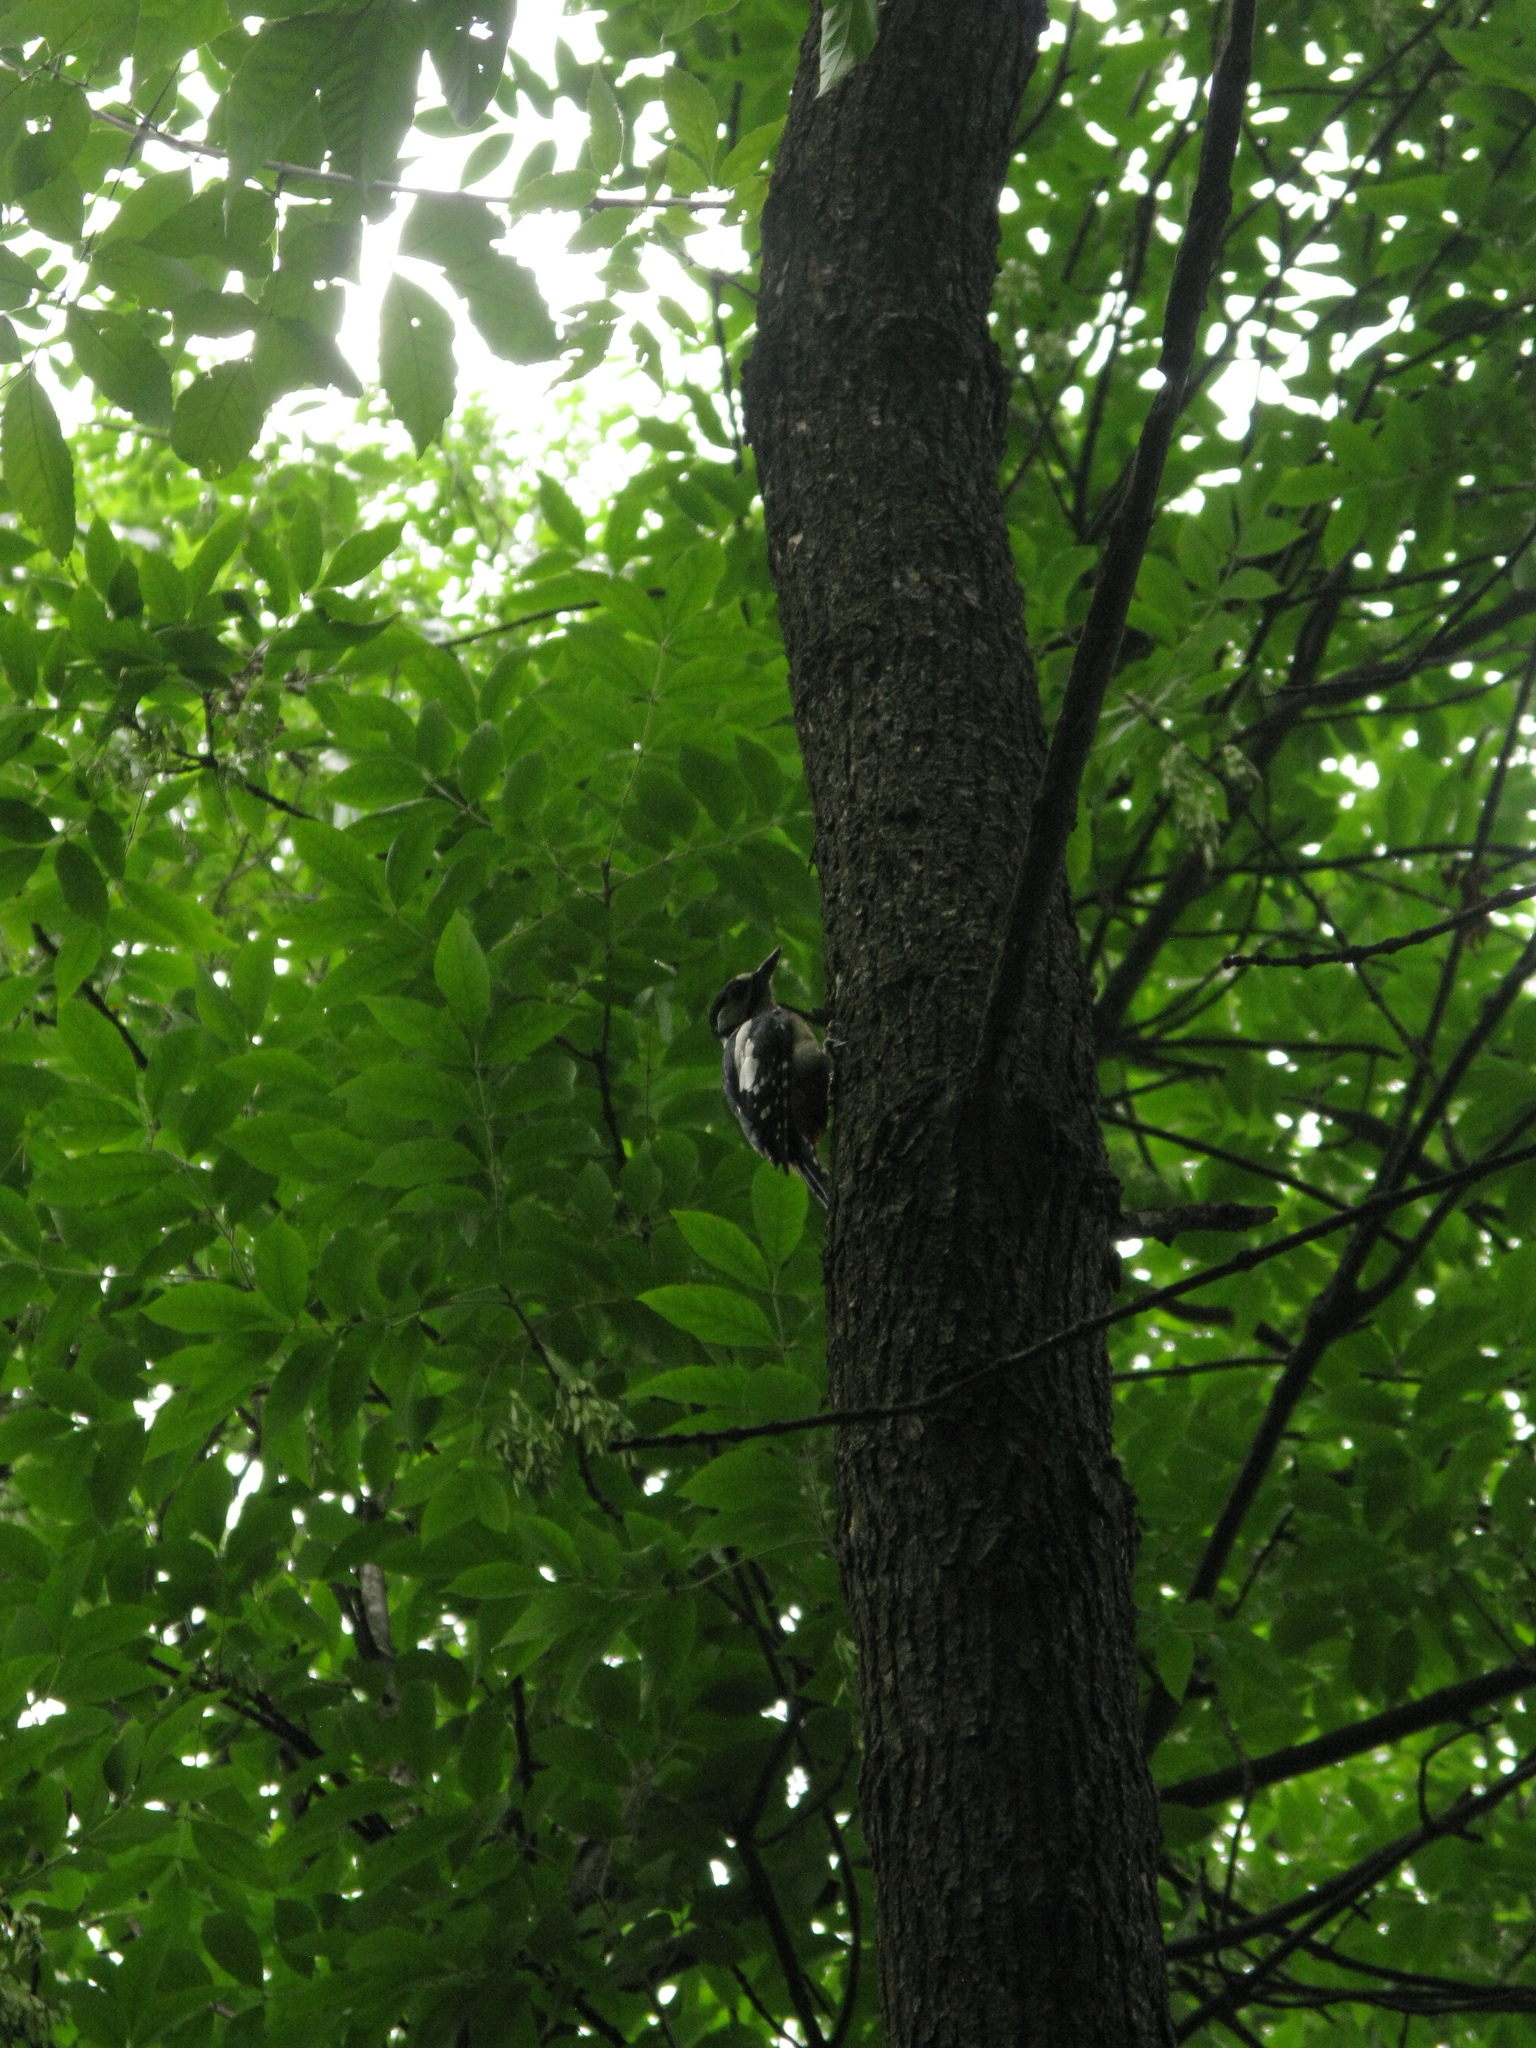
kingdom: Animalia
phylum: Chordata
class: Aves
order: Piciformes
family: Picidae
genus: Dendrocopos
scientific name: Dendrocopos major
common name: Great spotted woodpecker
